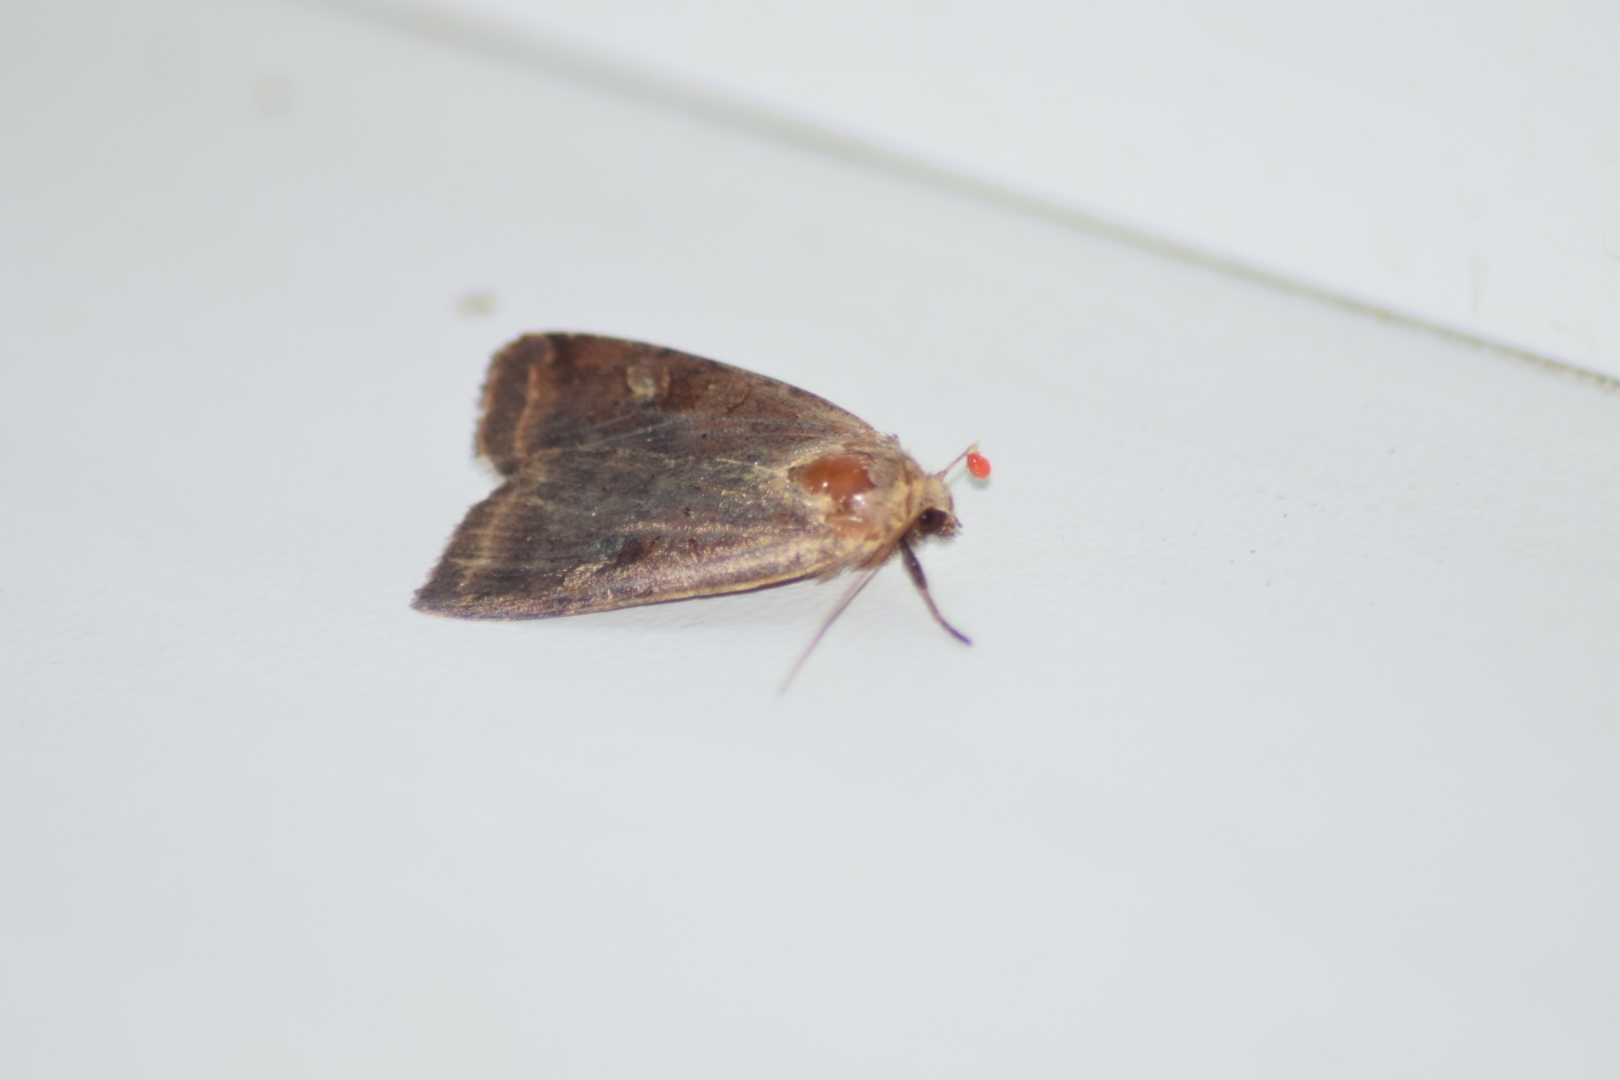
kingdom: Animalia
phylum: Arthropoda
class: Insecta
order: Lepidoptera
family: Noctuidae
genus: Diarsia
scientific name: Diarsia dahlii
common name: Barred chestnut
